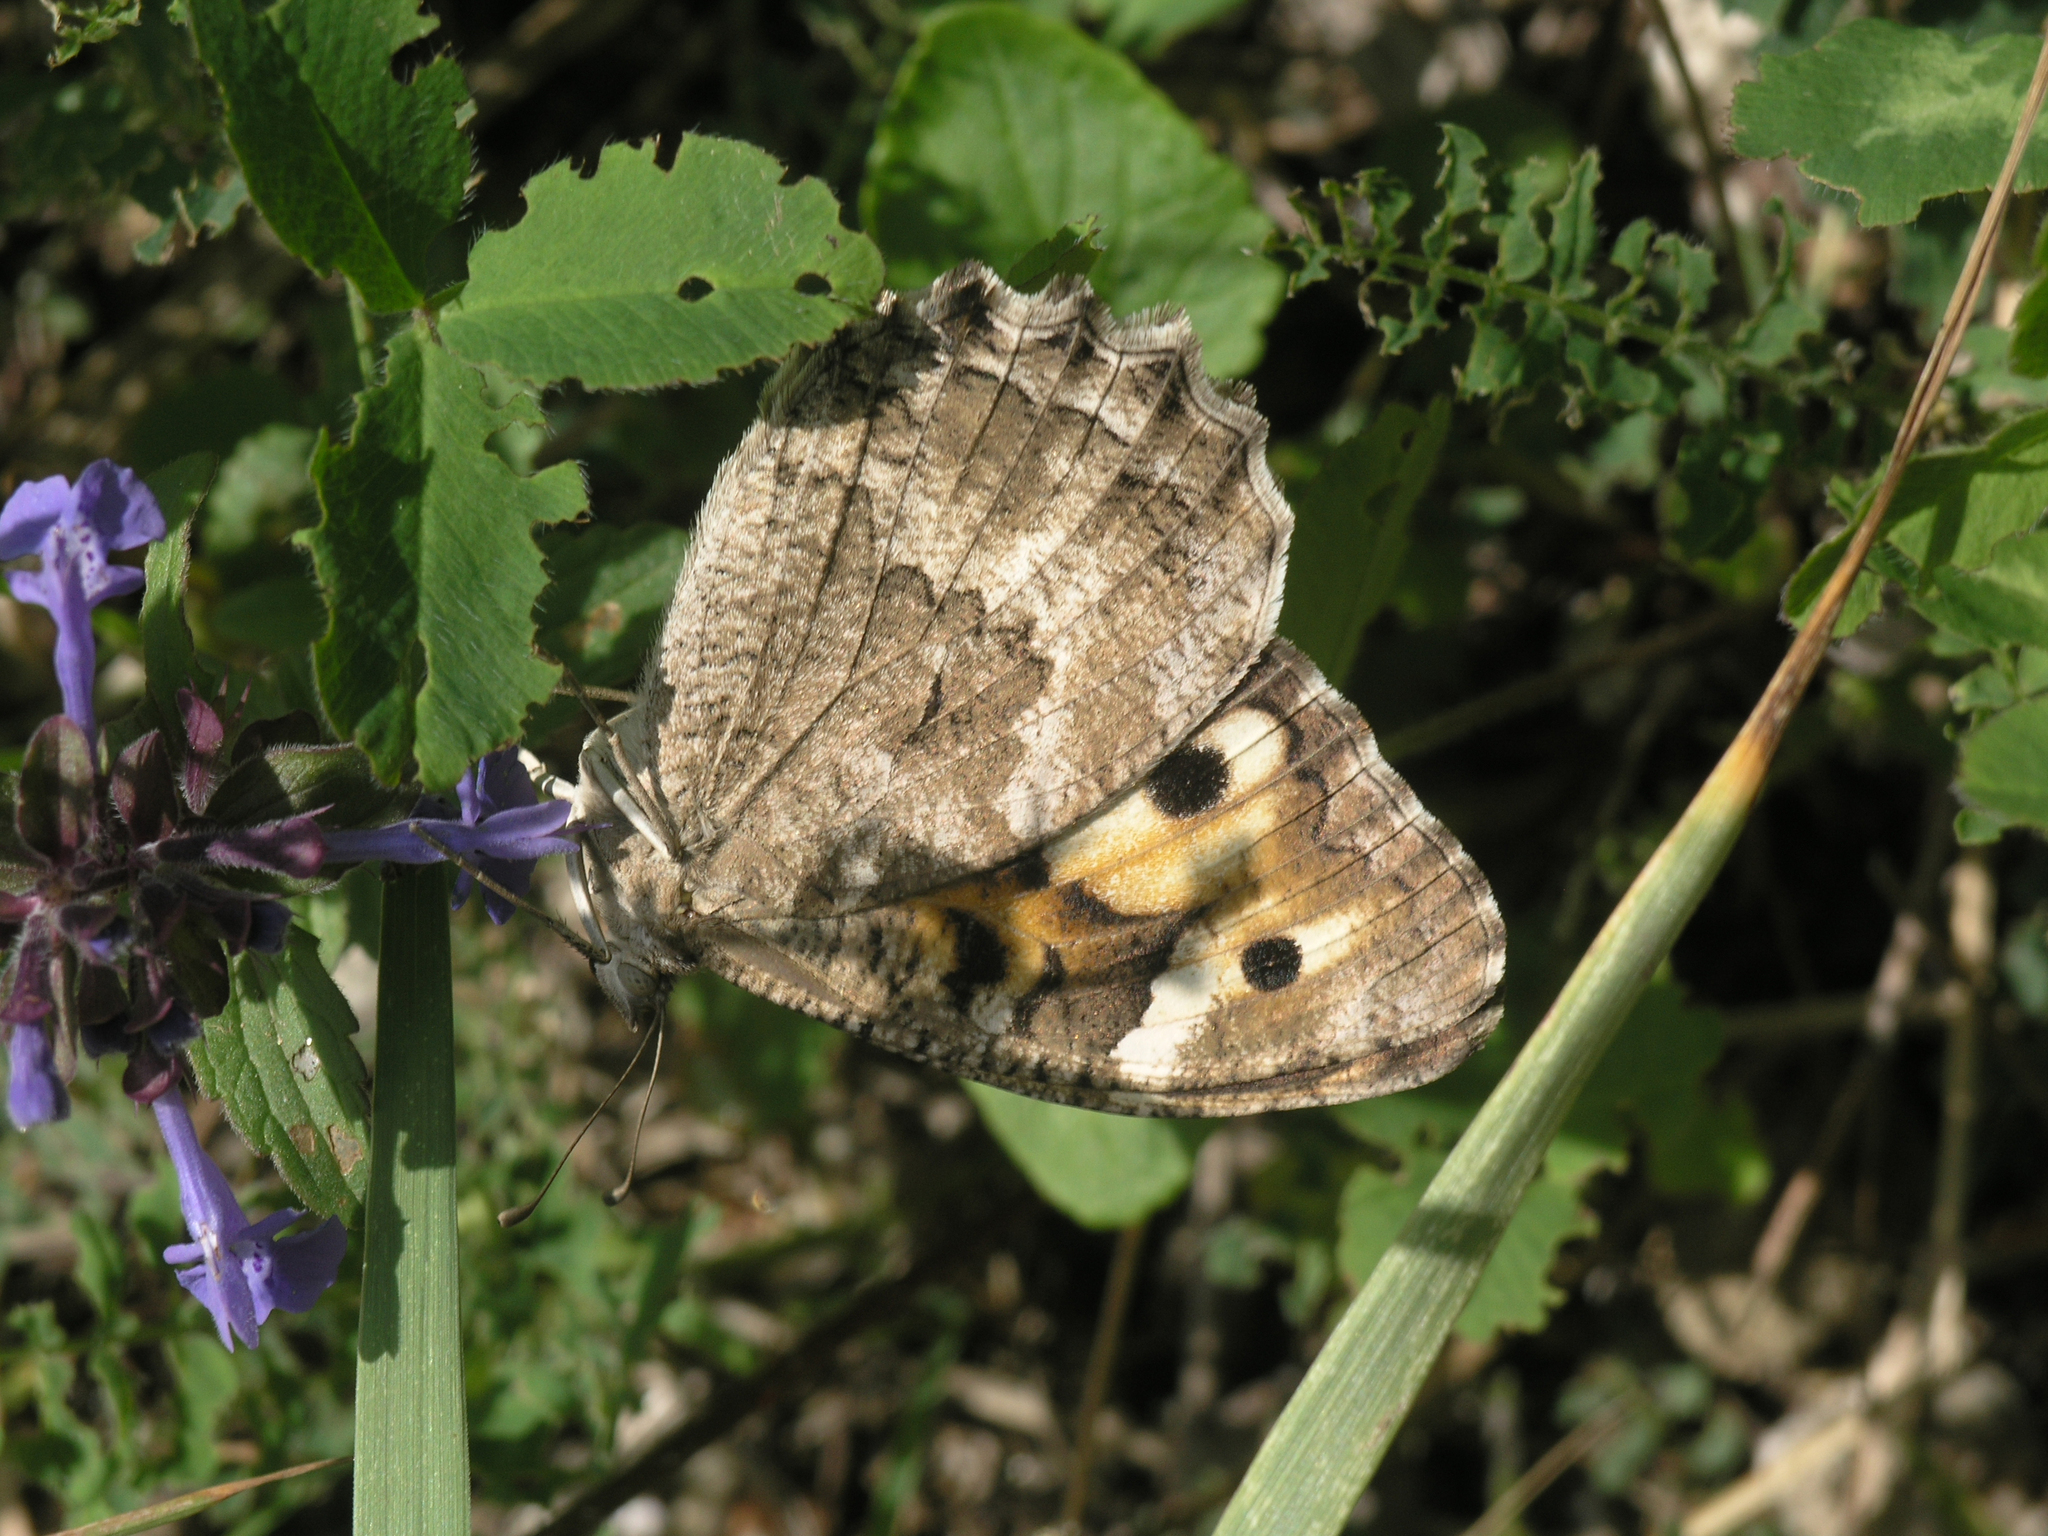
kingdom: Plantae
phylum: Tracheophyta
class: Magnoliopsida
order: Lamiales
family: Lamiaceae
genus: Dracocephalum
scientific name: Dracocephalum nutans
